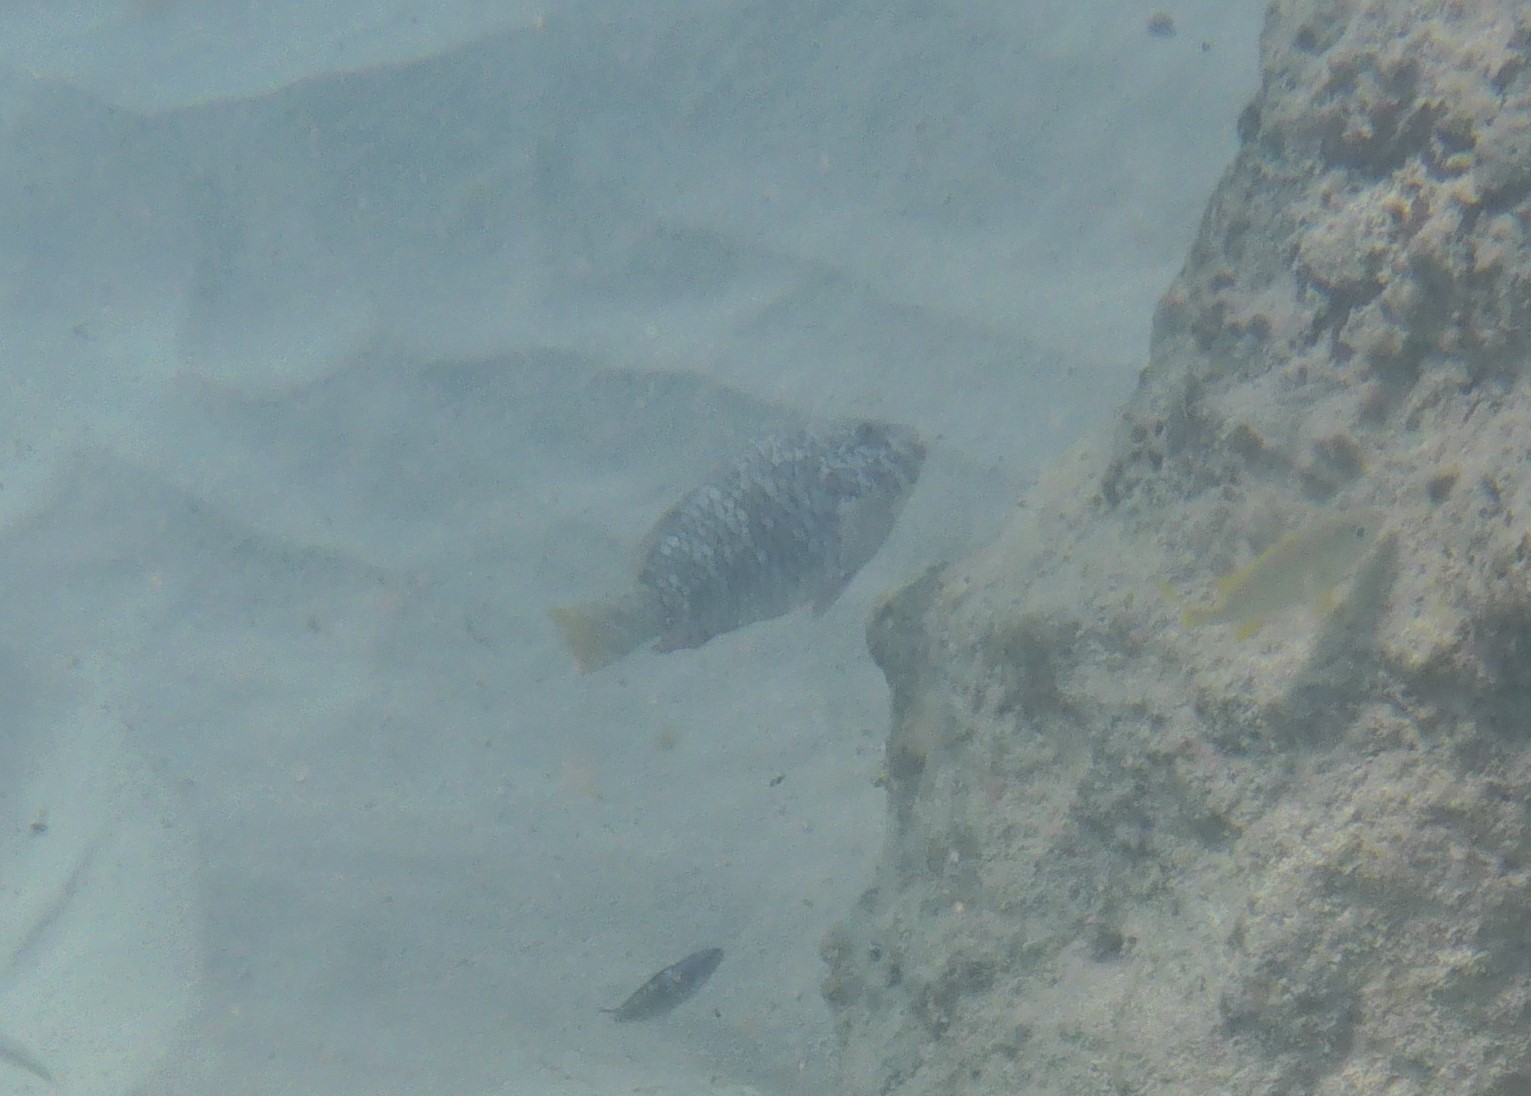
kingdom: Animalia
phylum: Chordata
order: Perciformes
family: Scaridae
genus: Sparisoma
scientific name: Sparisoma rubripinne
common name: Redfin parrotfish
